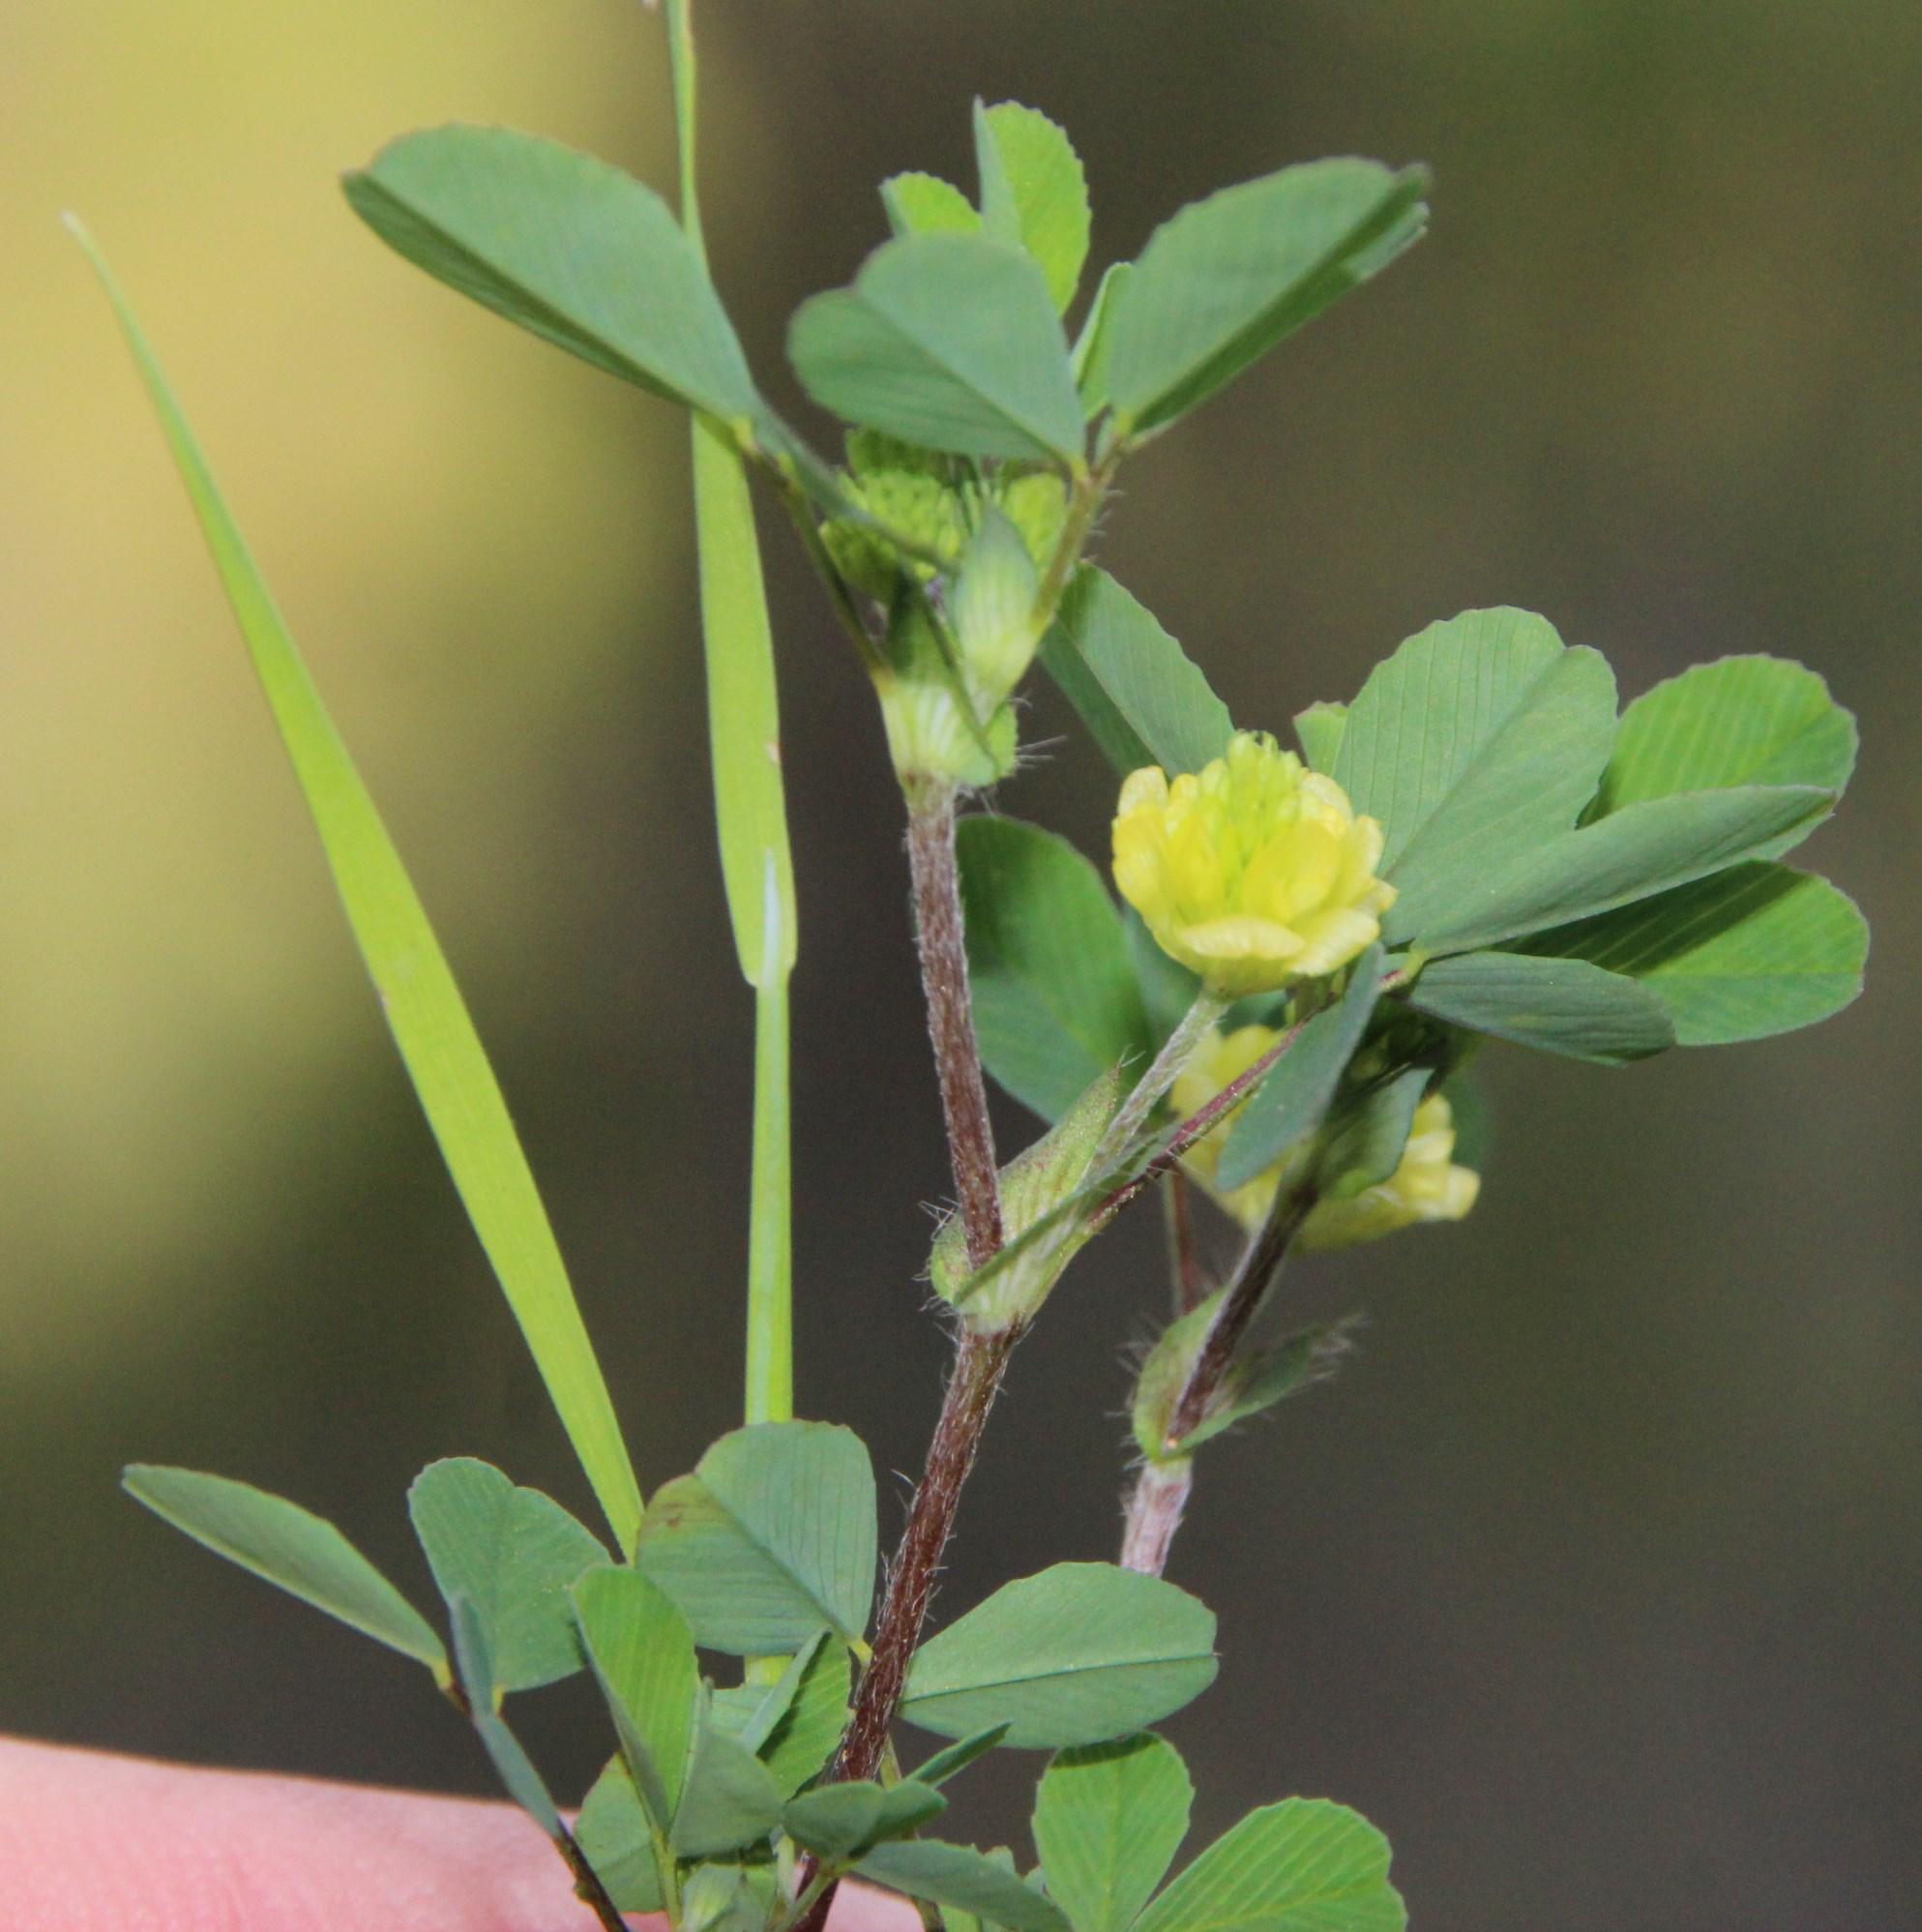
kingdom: Plantae
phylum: Tracheophyta
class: Magnoliopsida
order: Fabales
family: Fabaceae
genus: Trifolium
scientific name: Trifolium campestre
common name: Field clover
